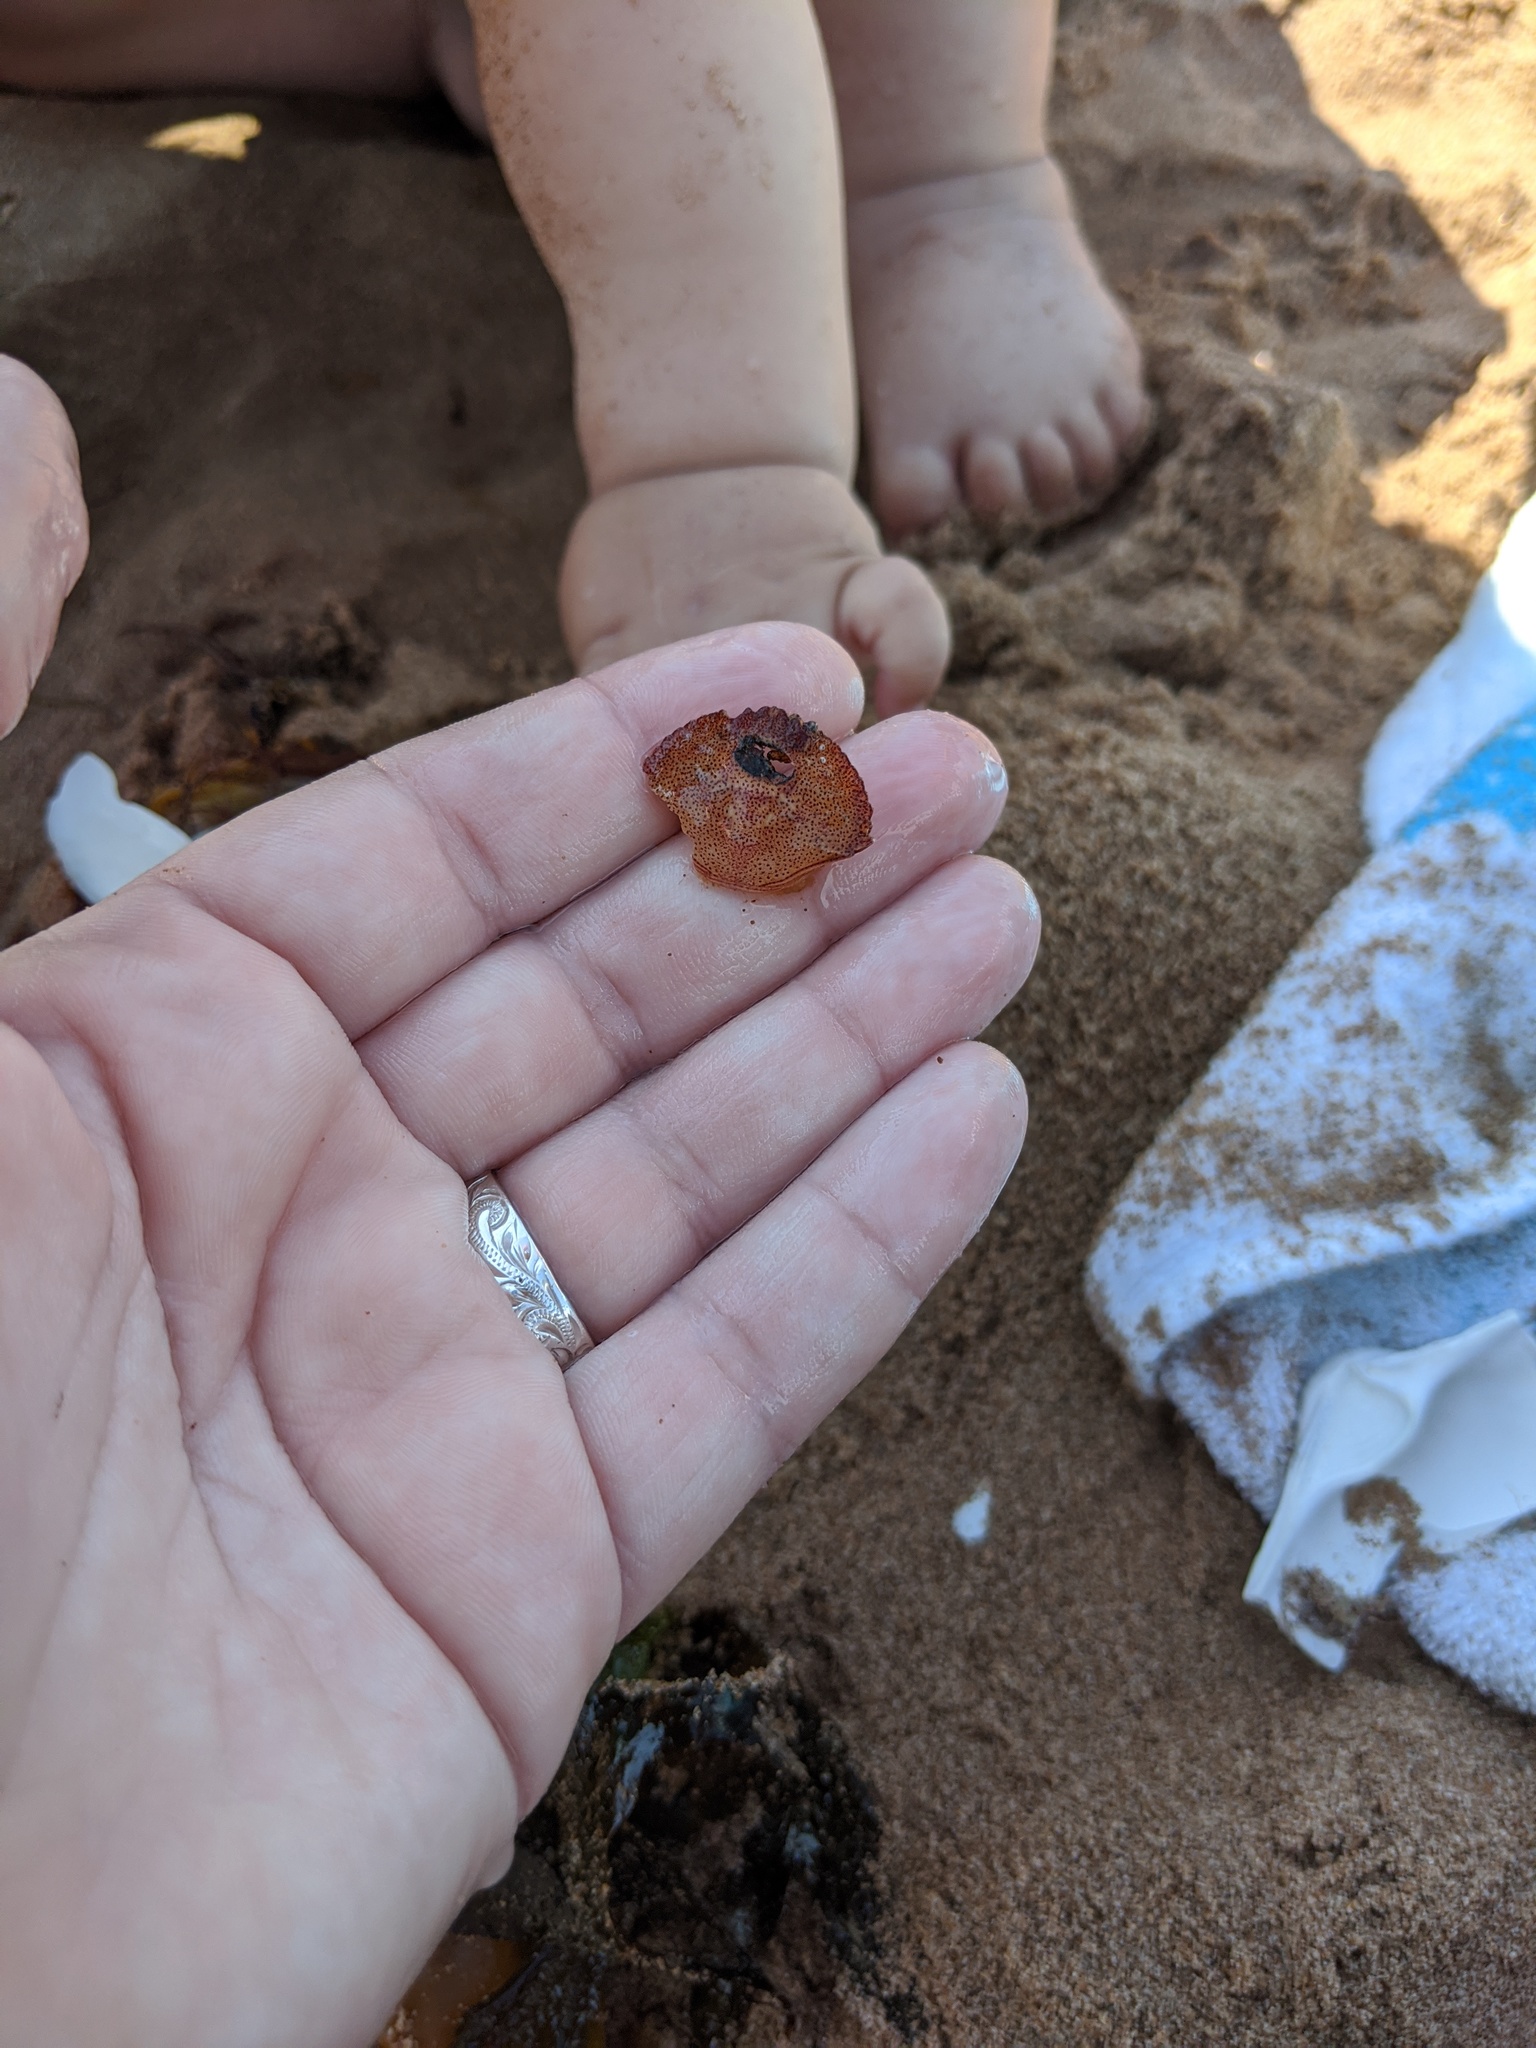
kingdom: Animalia
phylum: Arthropoda
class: Malacostraca
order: Decapoda
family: Cancridae
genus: Cancer
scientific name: Cancer irroratus
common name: Atlantic rock crab
